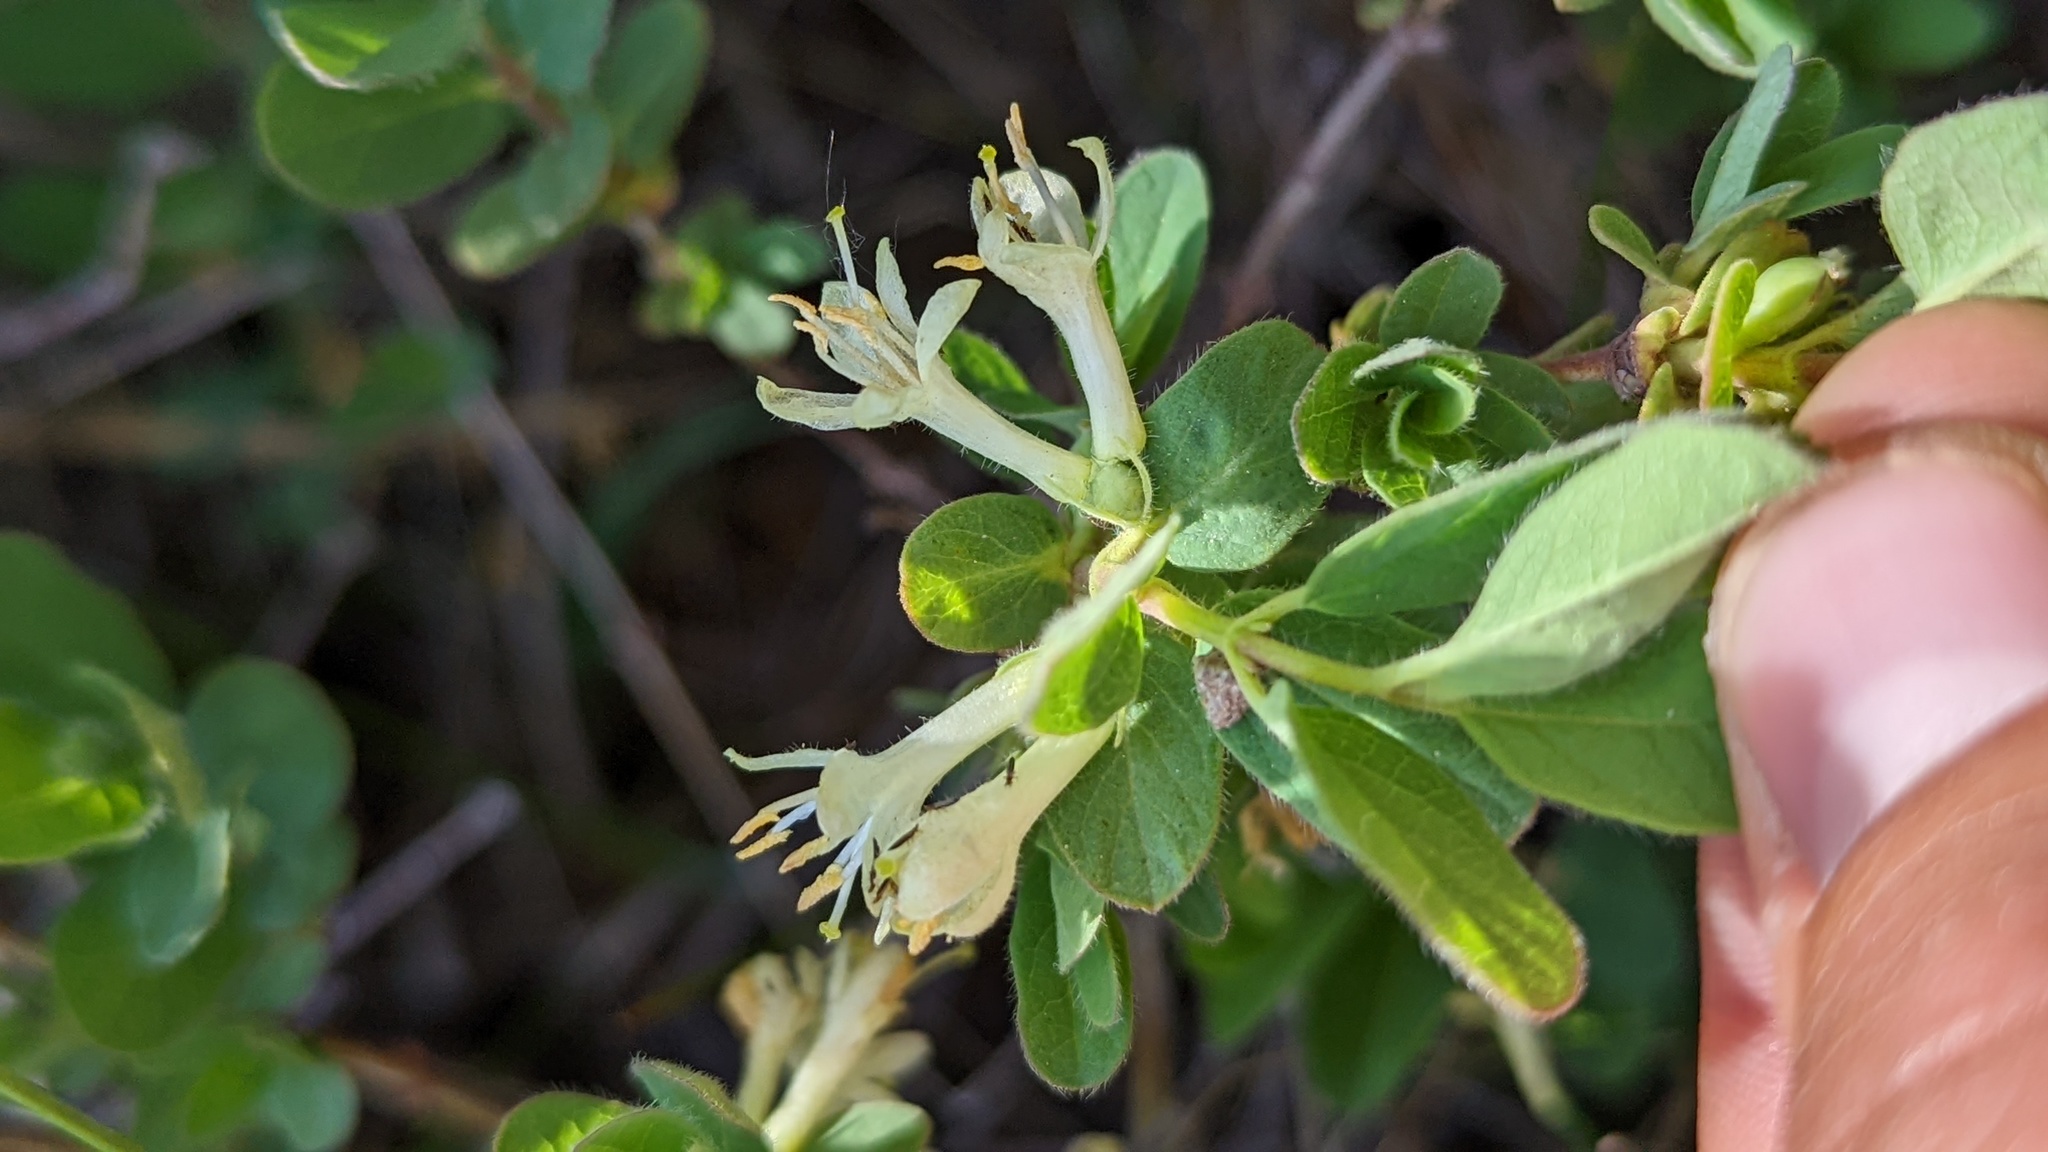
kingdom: Plantae
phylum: Tracheophyta
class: Magnoliopsida
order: Dipsacales
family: Caprifoliaceae
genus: Lonicera
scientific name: Lonicera caerulea
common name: Blue honeysuckle
